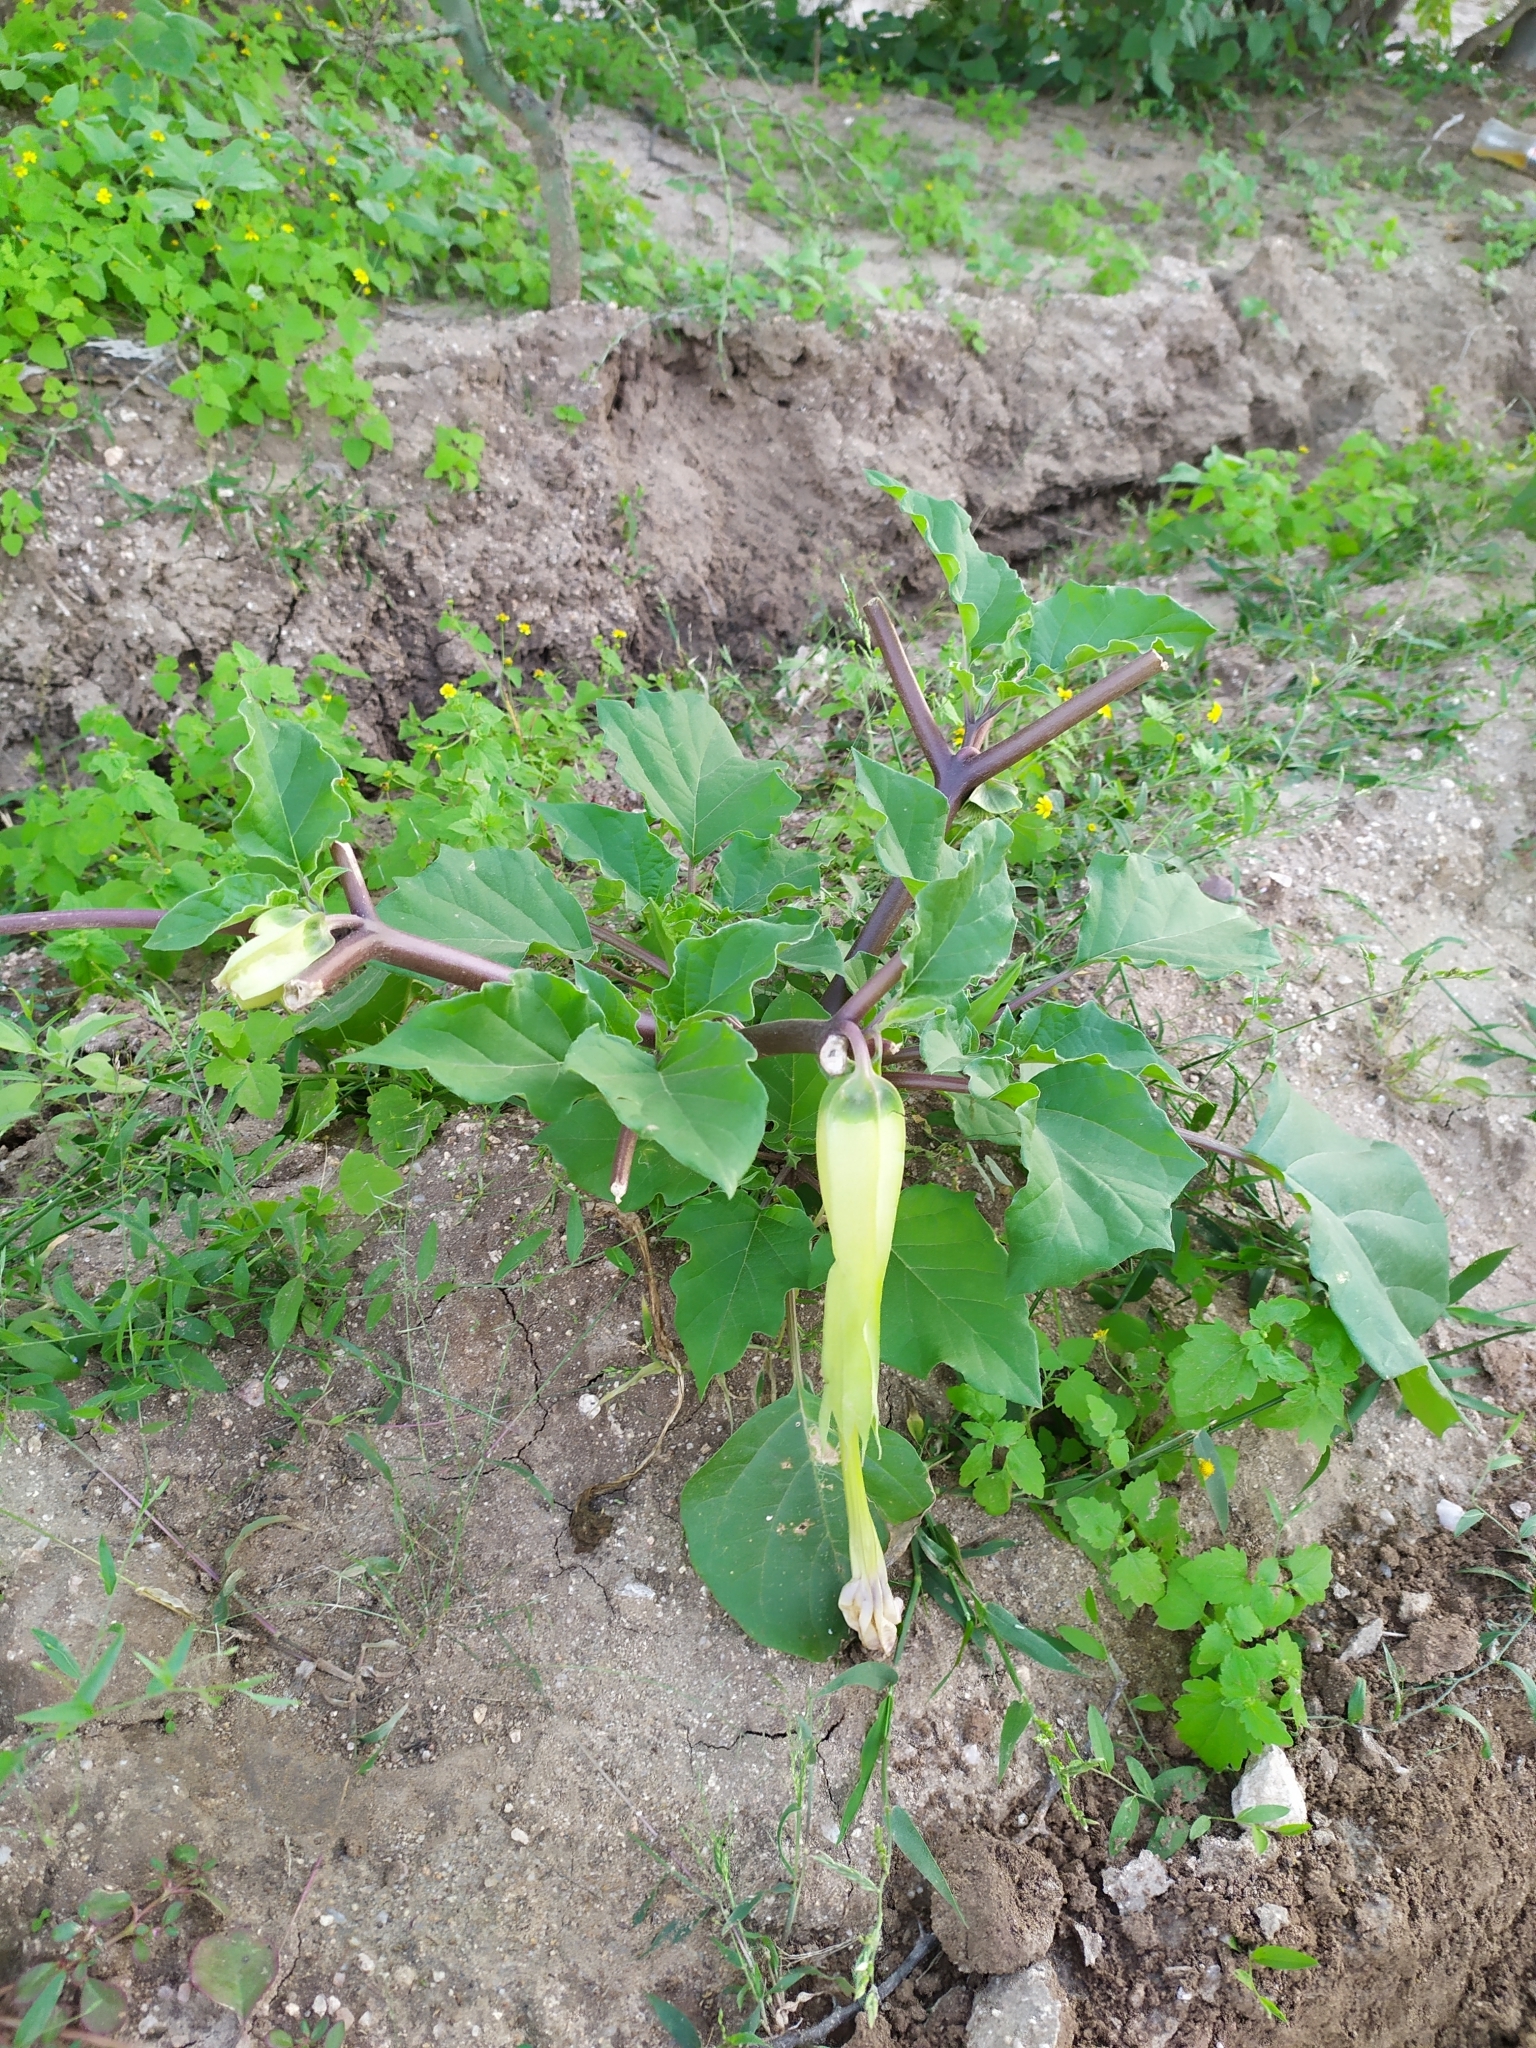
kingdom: Plantae
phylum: Tracheophyta
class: Magnoliopsida
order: Solanales
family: Solanaceae
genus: Datura
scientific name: Datura discolor
